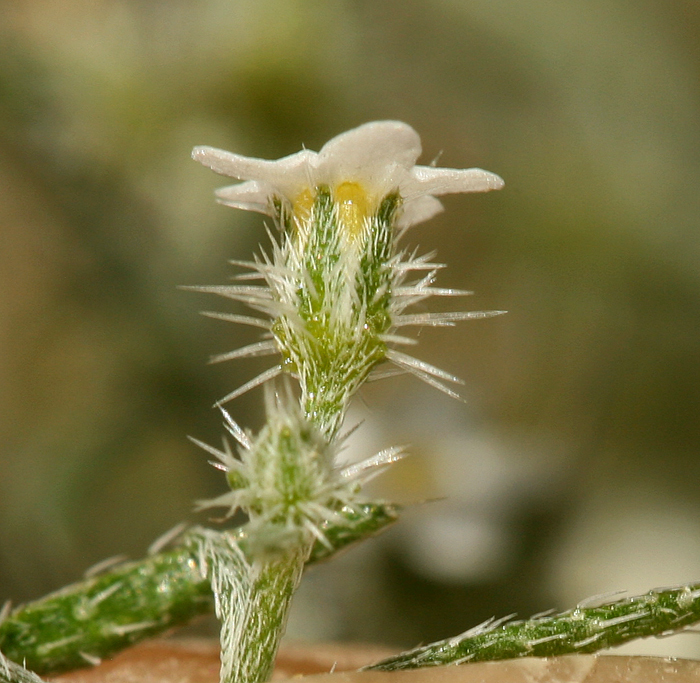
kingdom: Plantae
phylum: Tracheophyta
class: Magnoliopsida
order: Boraginales
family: Boraginaceae
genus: Johnstonella
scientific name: Johnstonella racemosa
